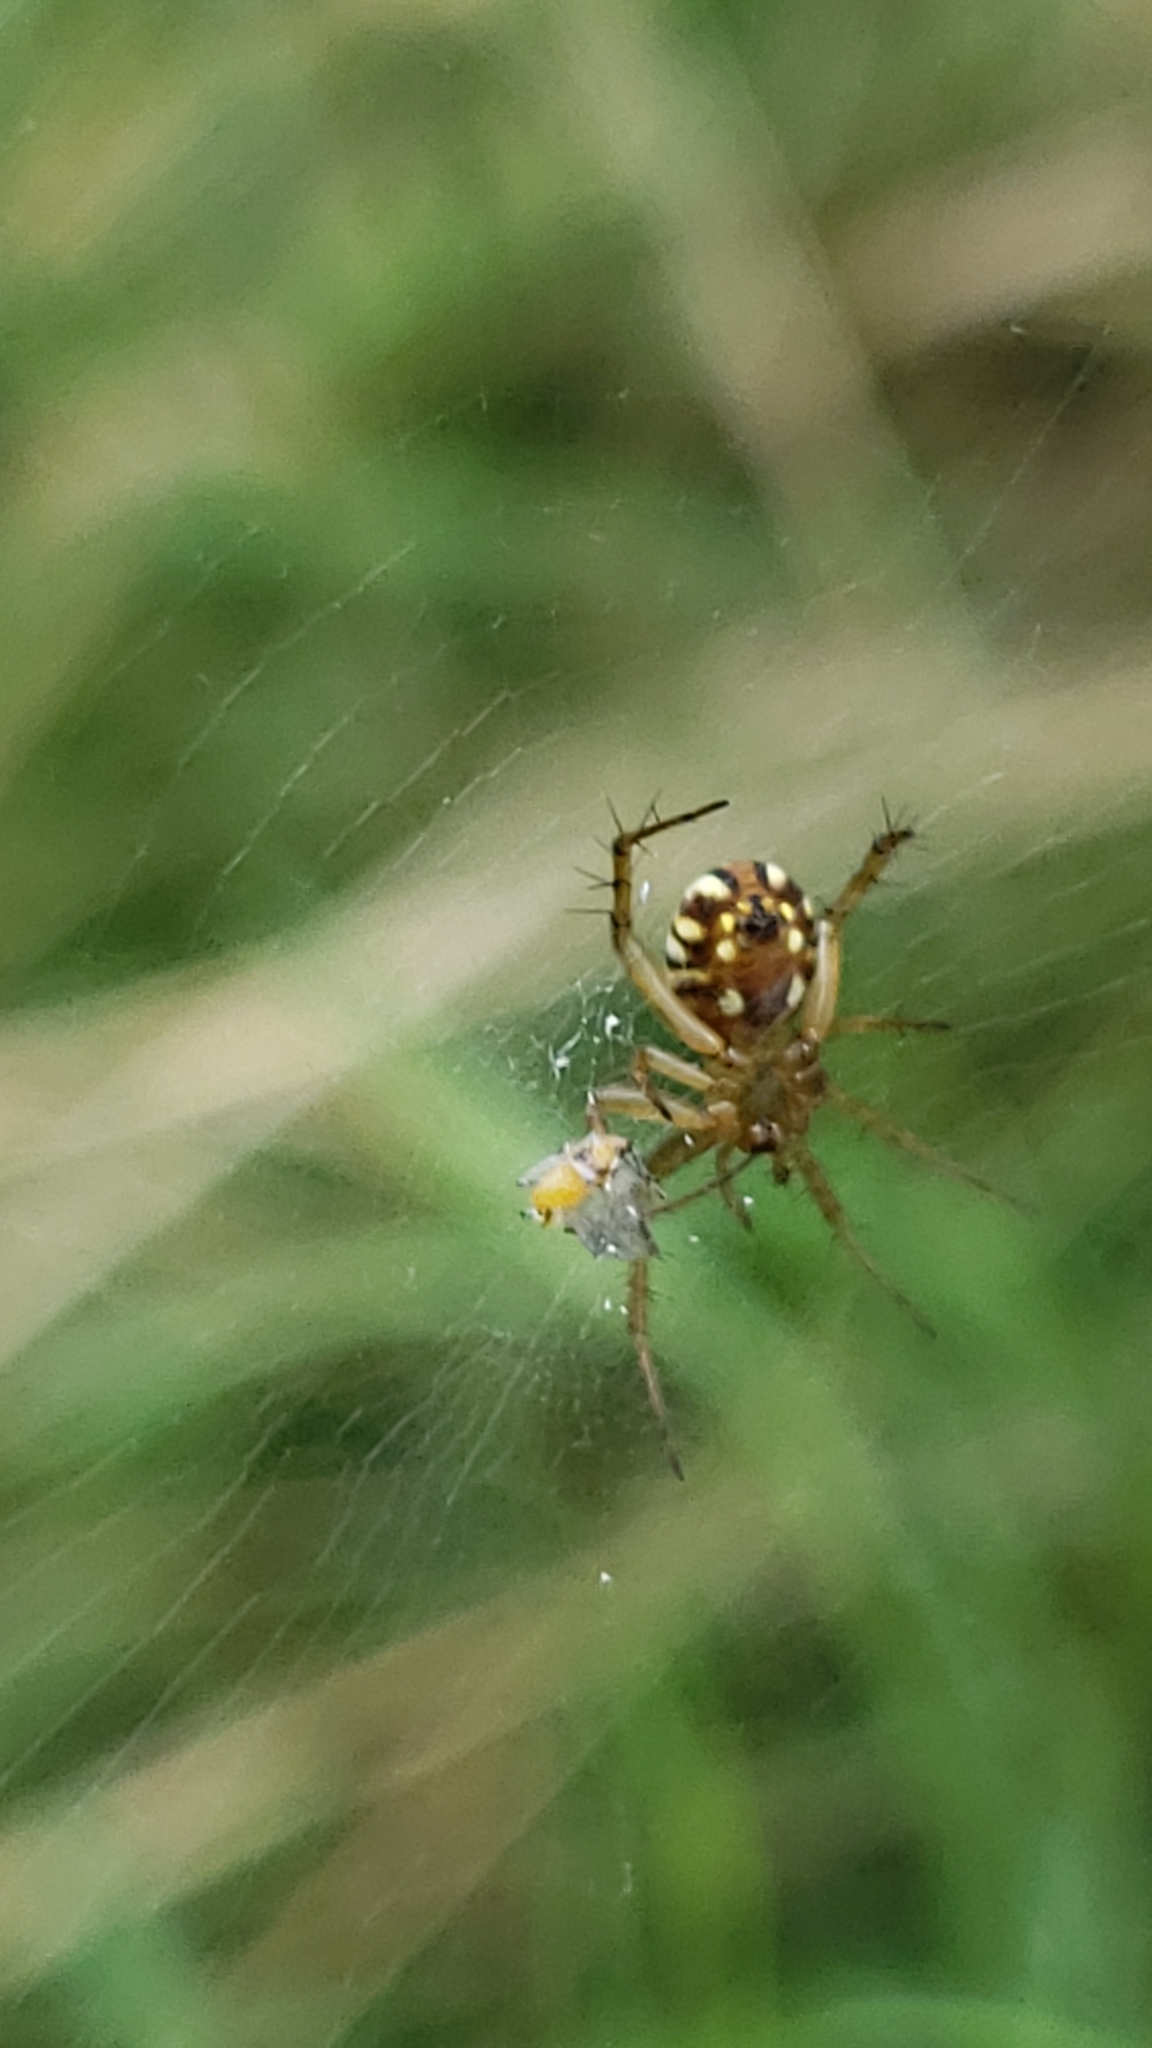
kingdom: Animalia
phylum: Arthropoda
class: Arachnida
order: Araneae
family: Araneidae
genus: Mangora
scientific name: Mangora gibberosa
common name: Lined orbweaver
